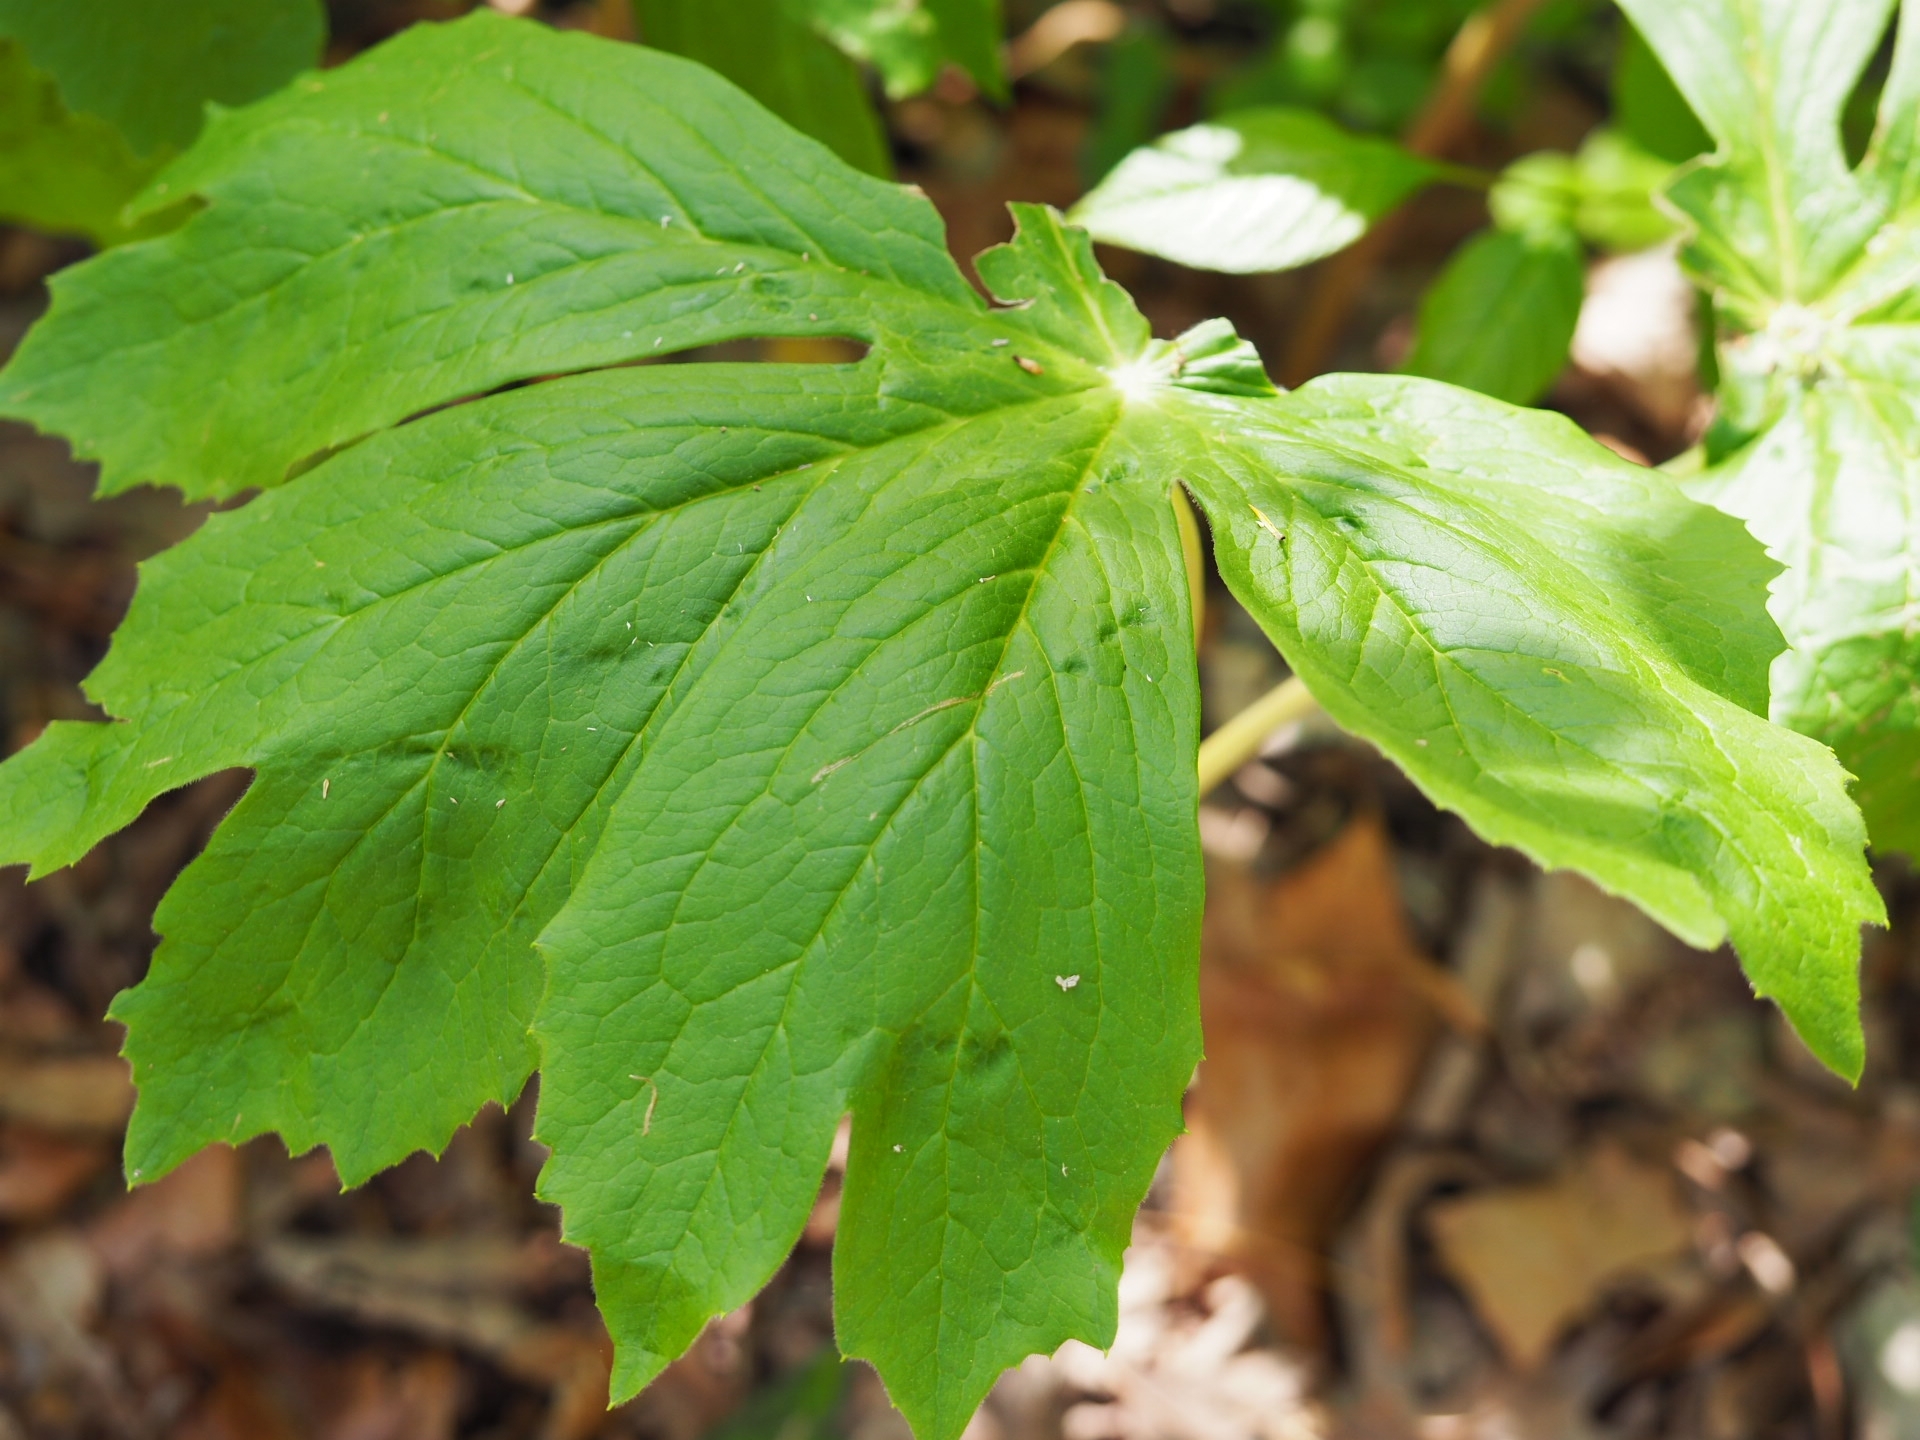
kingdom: Plantae
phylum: Tracheophyta
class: Magnoliopsida
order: Ranunculales
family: Berberidaceae
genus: Podophyllum
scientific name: Podophyllum peltatum
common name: Wild mandrake
